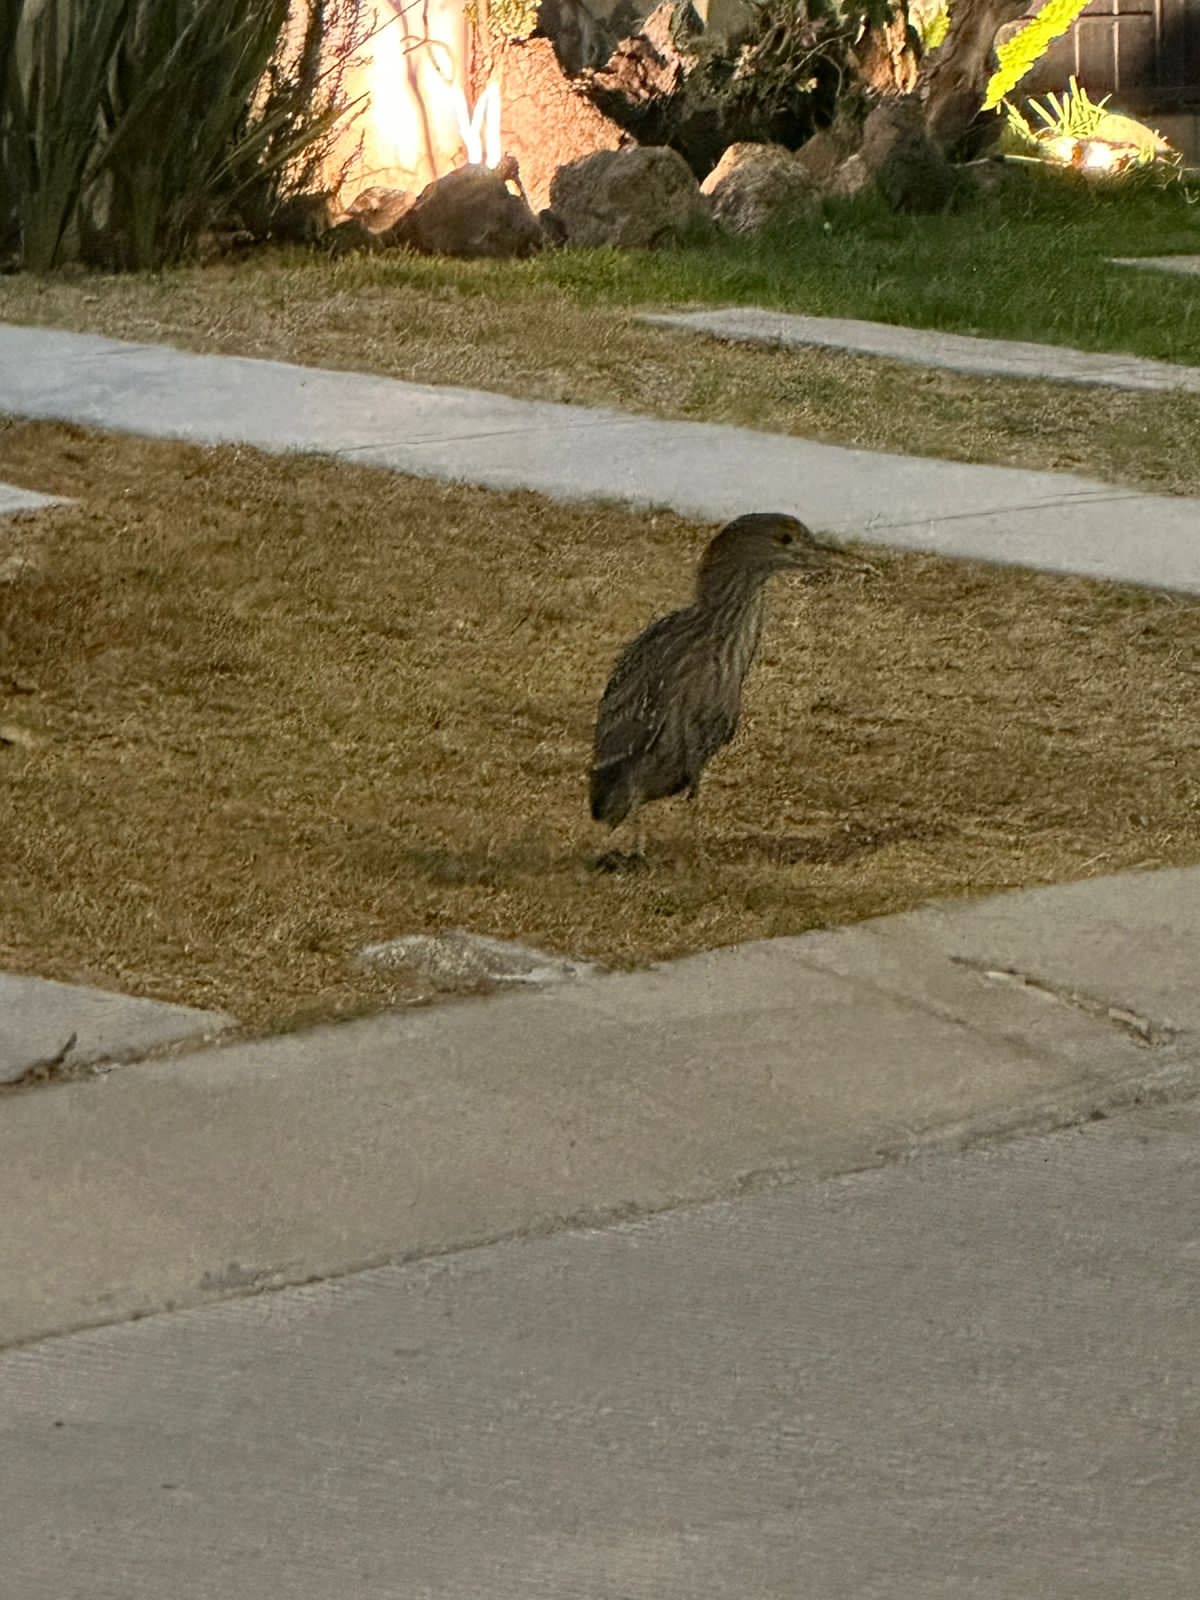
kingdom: Animalia
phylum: Chordata
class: Aves
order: Pelecaniformes
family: Ardeidae
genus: Nycticorax
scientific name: Nycticorax nycticorax
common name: Black-crowned night heron
